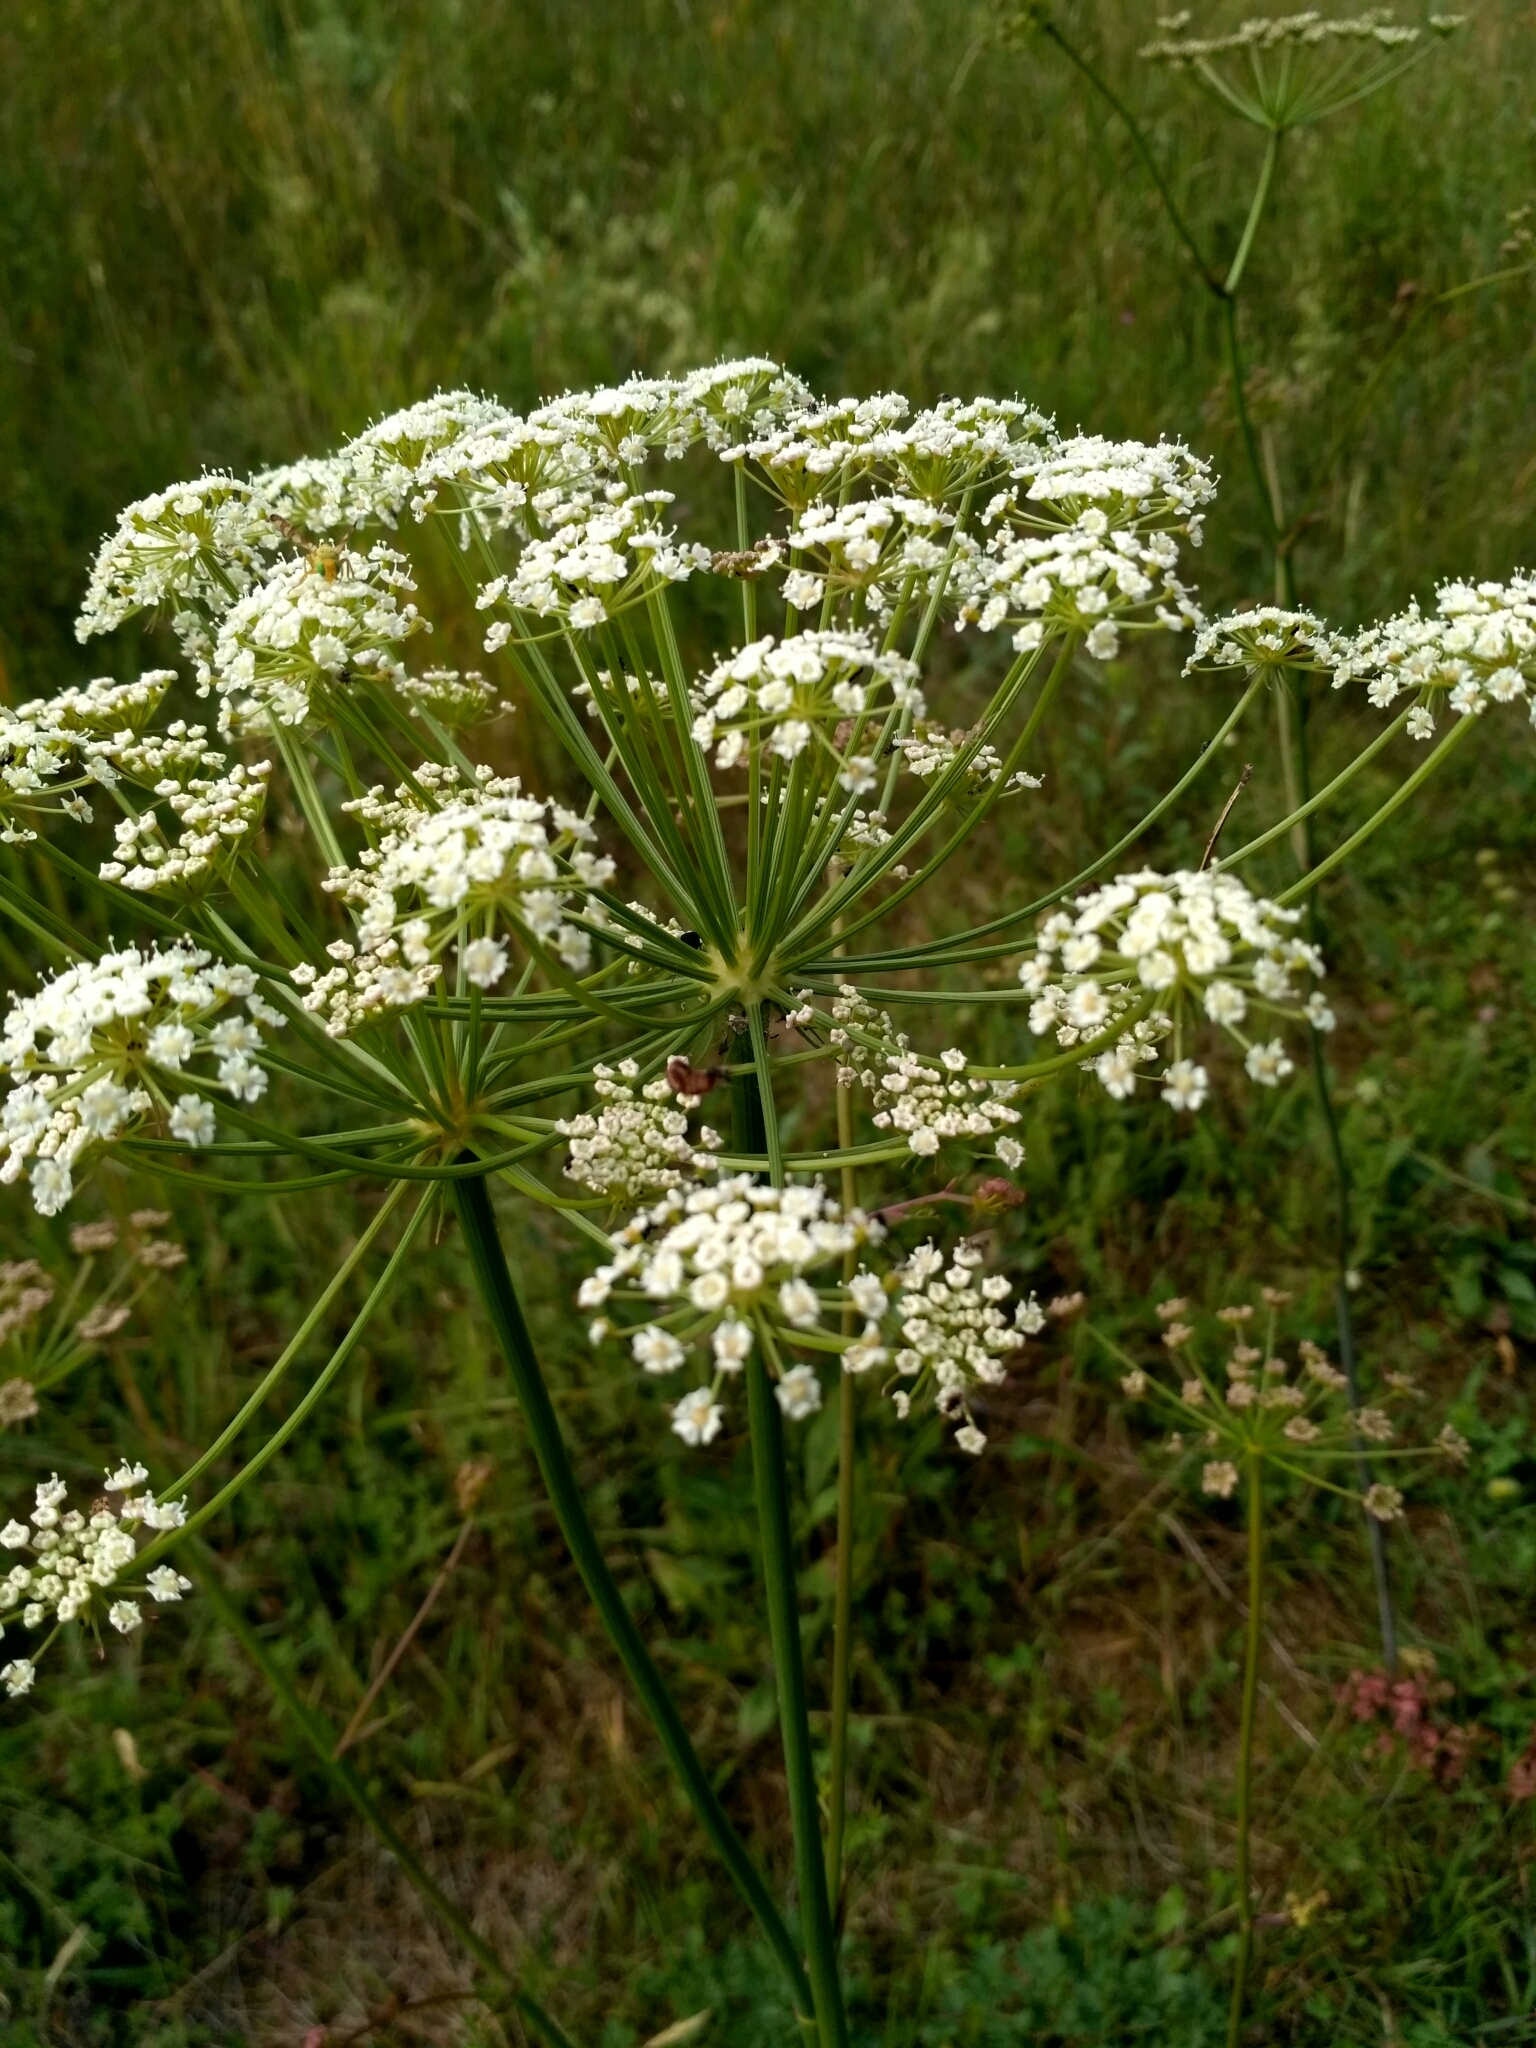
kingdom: Plantae
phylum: Tracheophyta
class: Magnoliopsida
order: Apiales
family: Apiaceae
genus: Oreoselinum
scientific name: Oreoselinum nigrum
